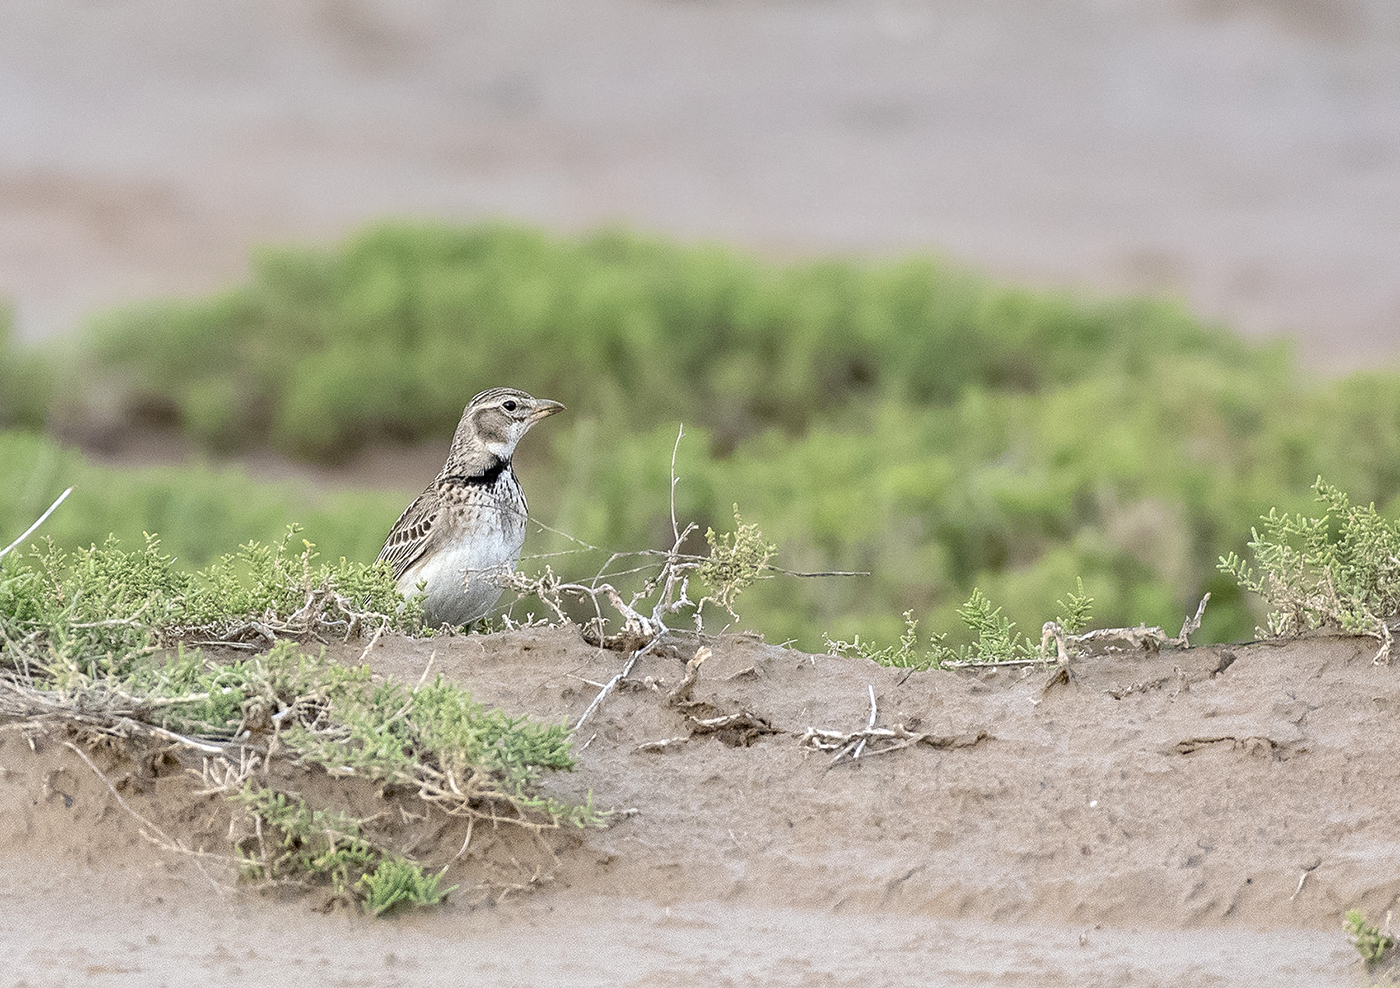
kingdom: Animalia
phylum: Chordata
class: Aves
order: Passeriformes
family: Alaudidae
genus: Melanocorypha
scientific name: Melanocorypha calandra
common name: Calandra lark
